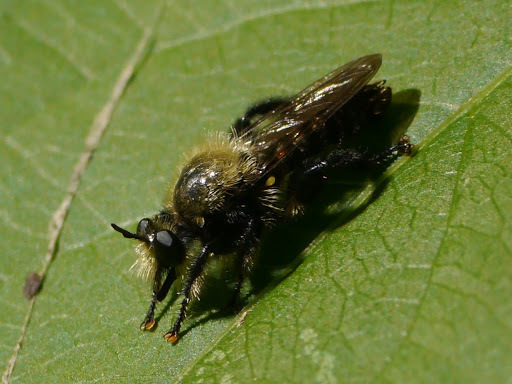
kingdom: Animalia
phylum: Arthropoda
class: Insecta
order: Diptera
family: Asilidae
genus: Laphria
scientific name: Laphria flavicollis
